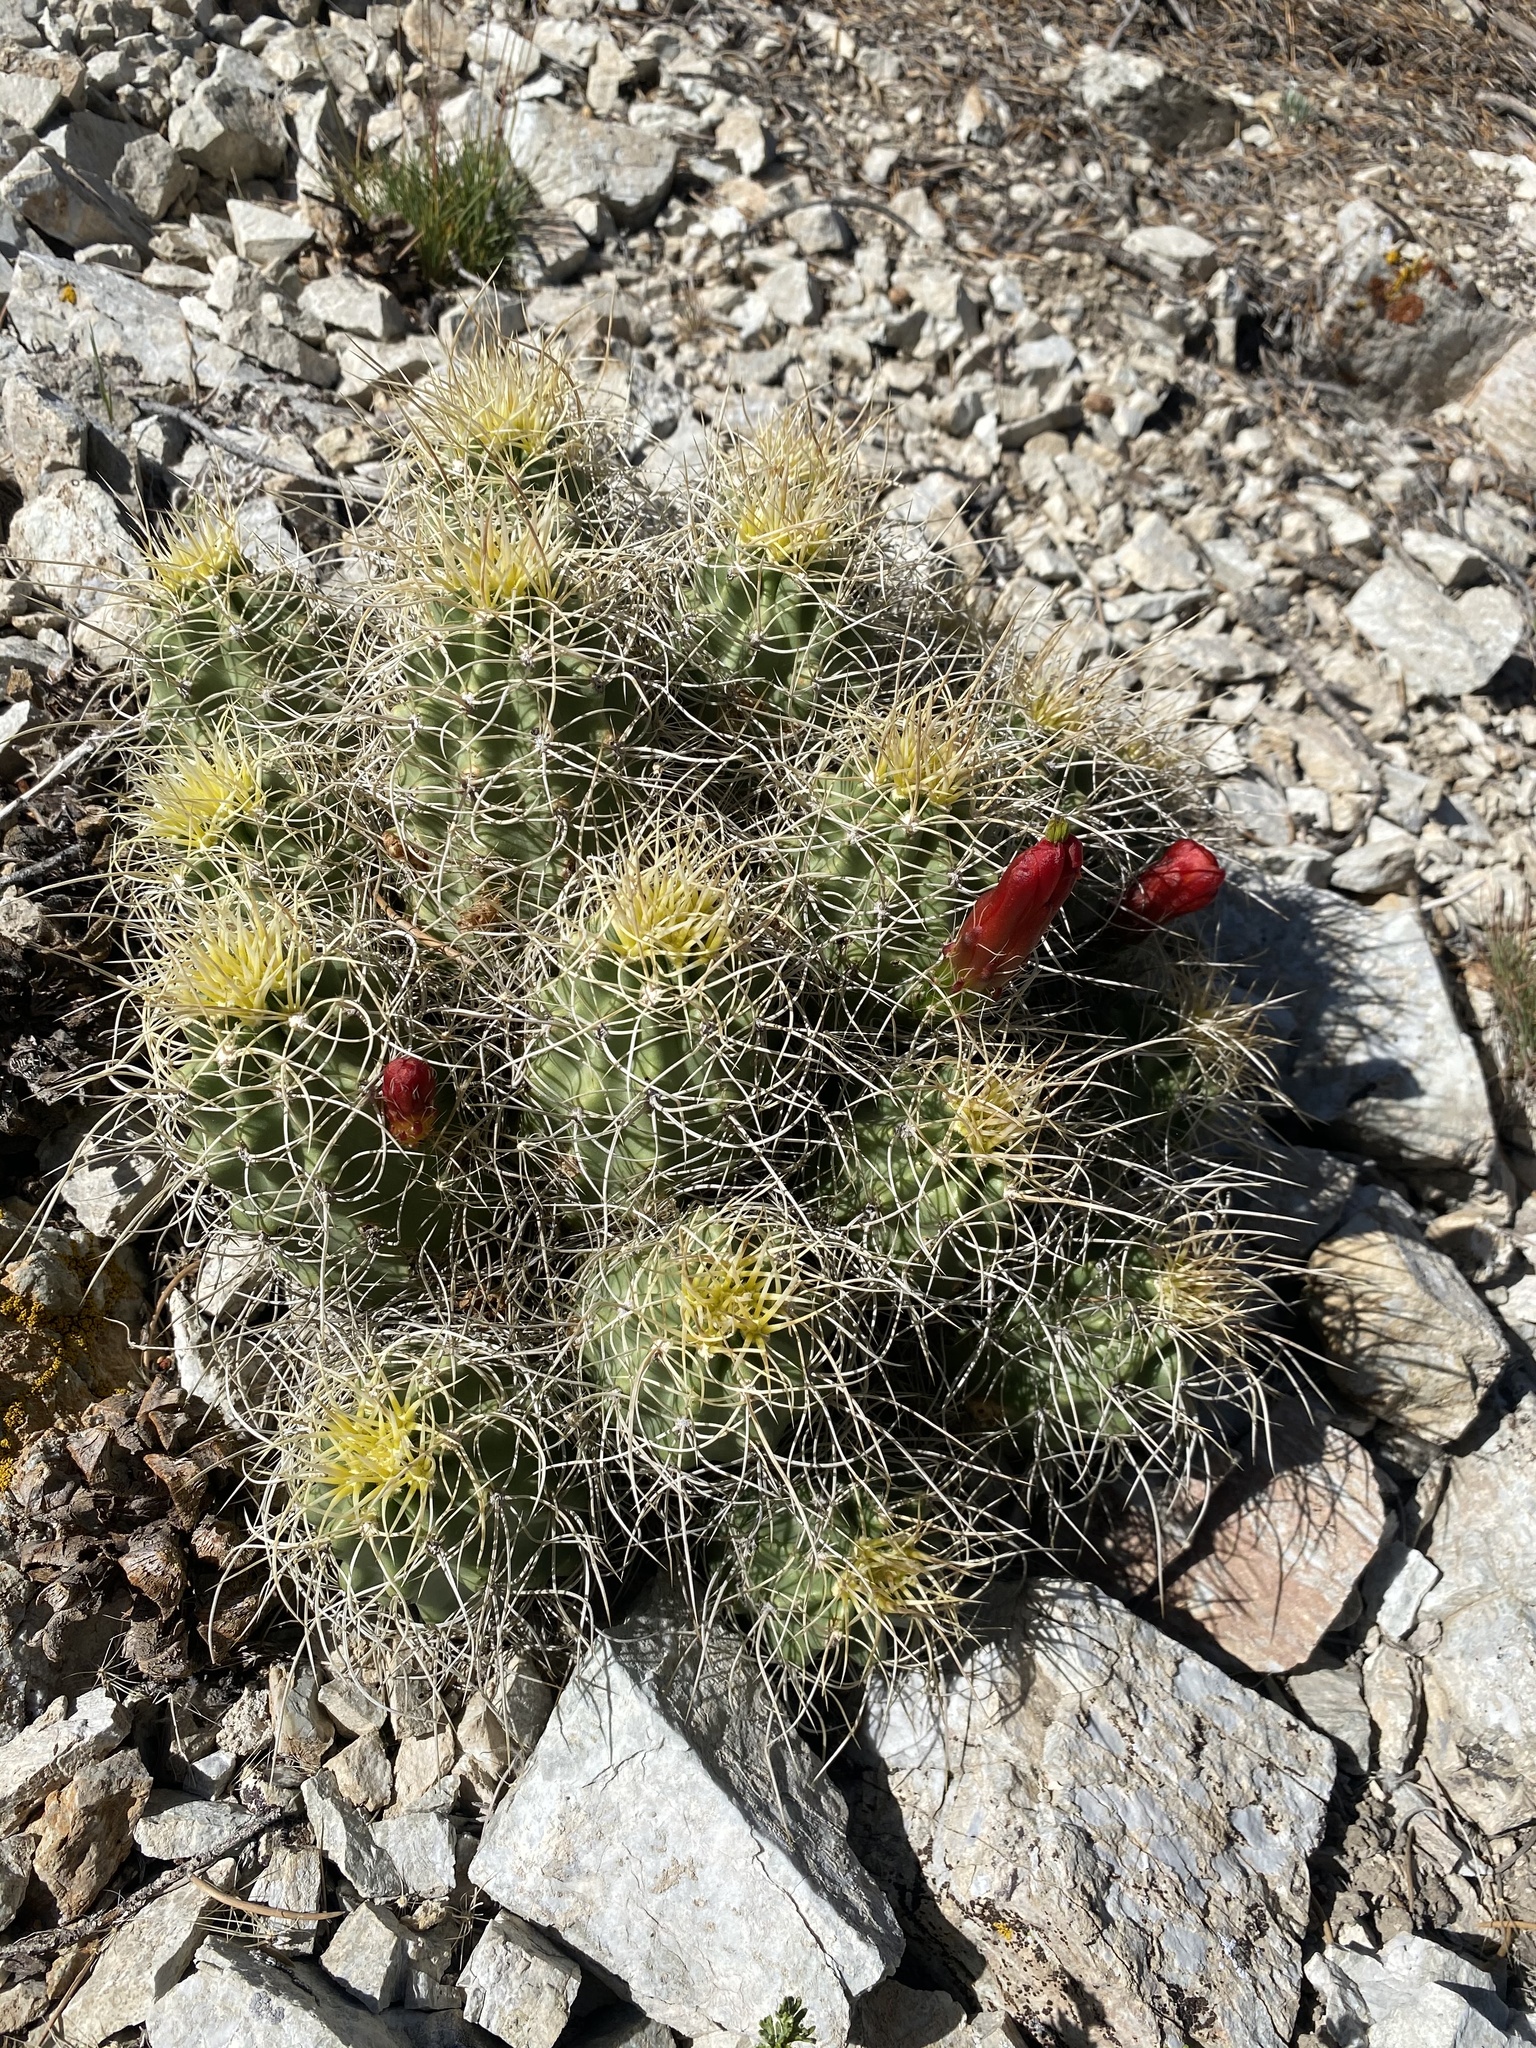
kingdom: Plantae
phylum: Tracheophyta
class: Magnoliopsida
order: Caryophyllales
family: Cactaceae
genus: Echinocereus
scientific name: Echinocereus triglochidiatus
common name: Claretcup hedgehog
